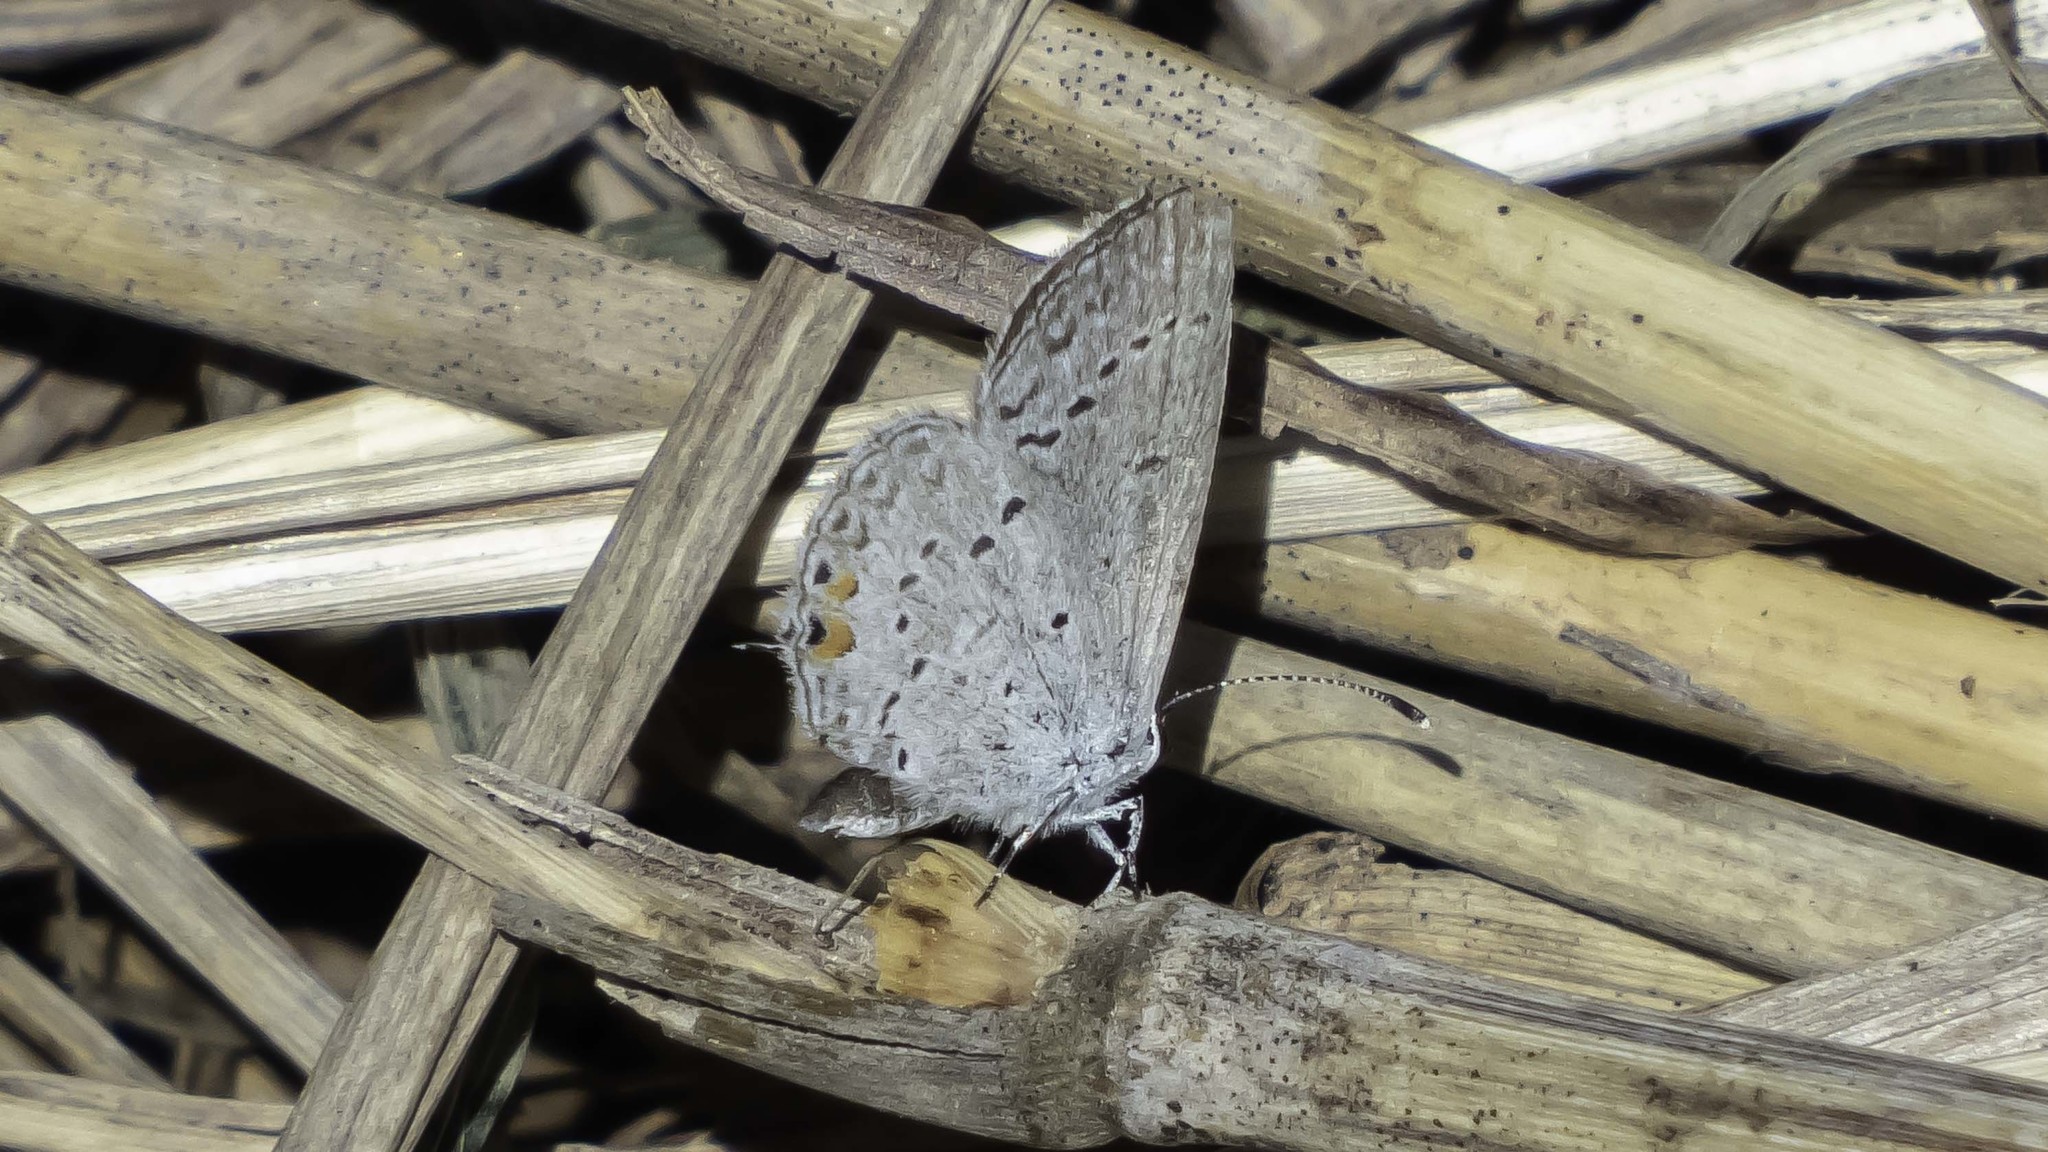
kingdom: Animalia
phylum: Arthropoda
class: Insecta
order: Lepidoptera
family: Lycaenidae
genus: Elkalyce
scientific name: Elkalyce comyntas
